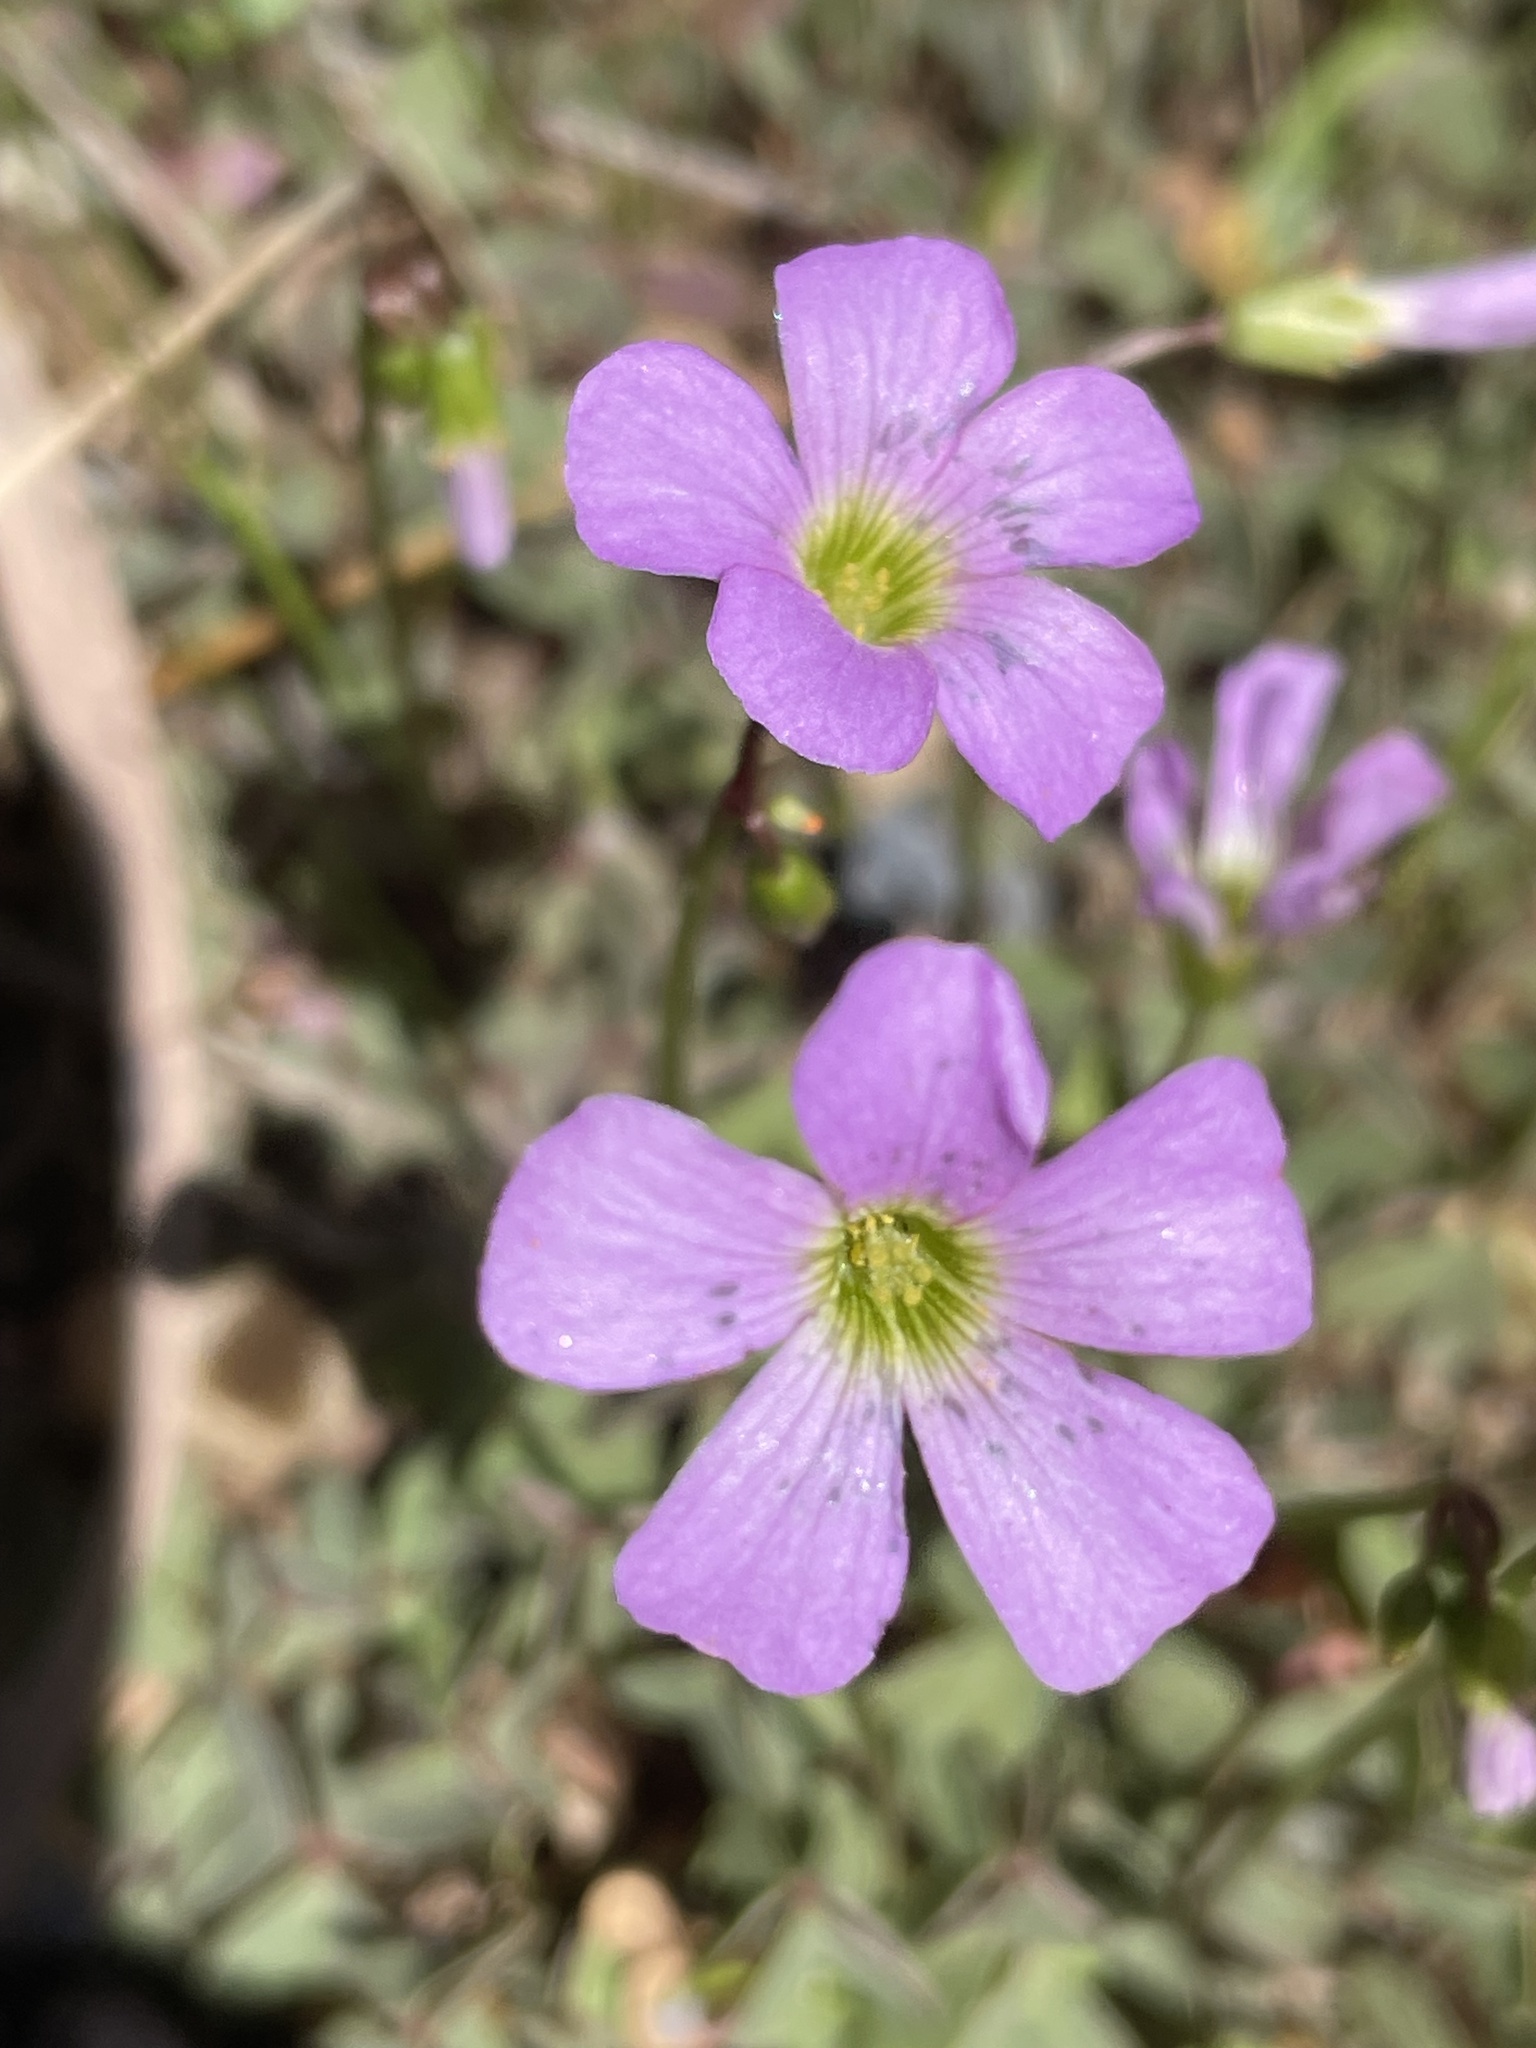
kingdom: Plantae
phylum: Tracheophyta
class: Magnoliopsida
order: Oxalidales
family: Oxalidaceae
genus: Oxalis
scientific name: Oxalis violacea
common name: Violet wood-sorrel
